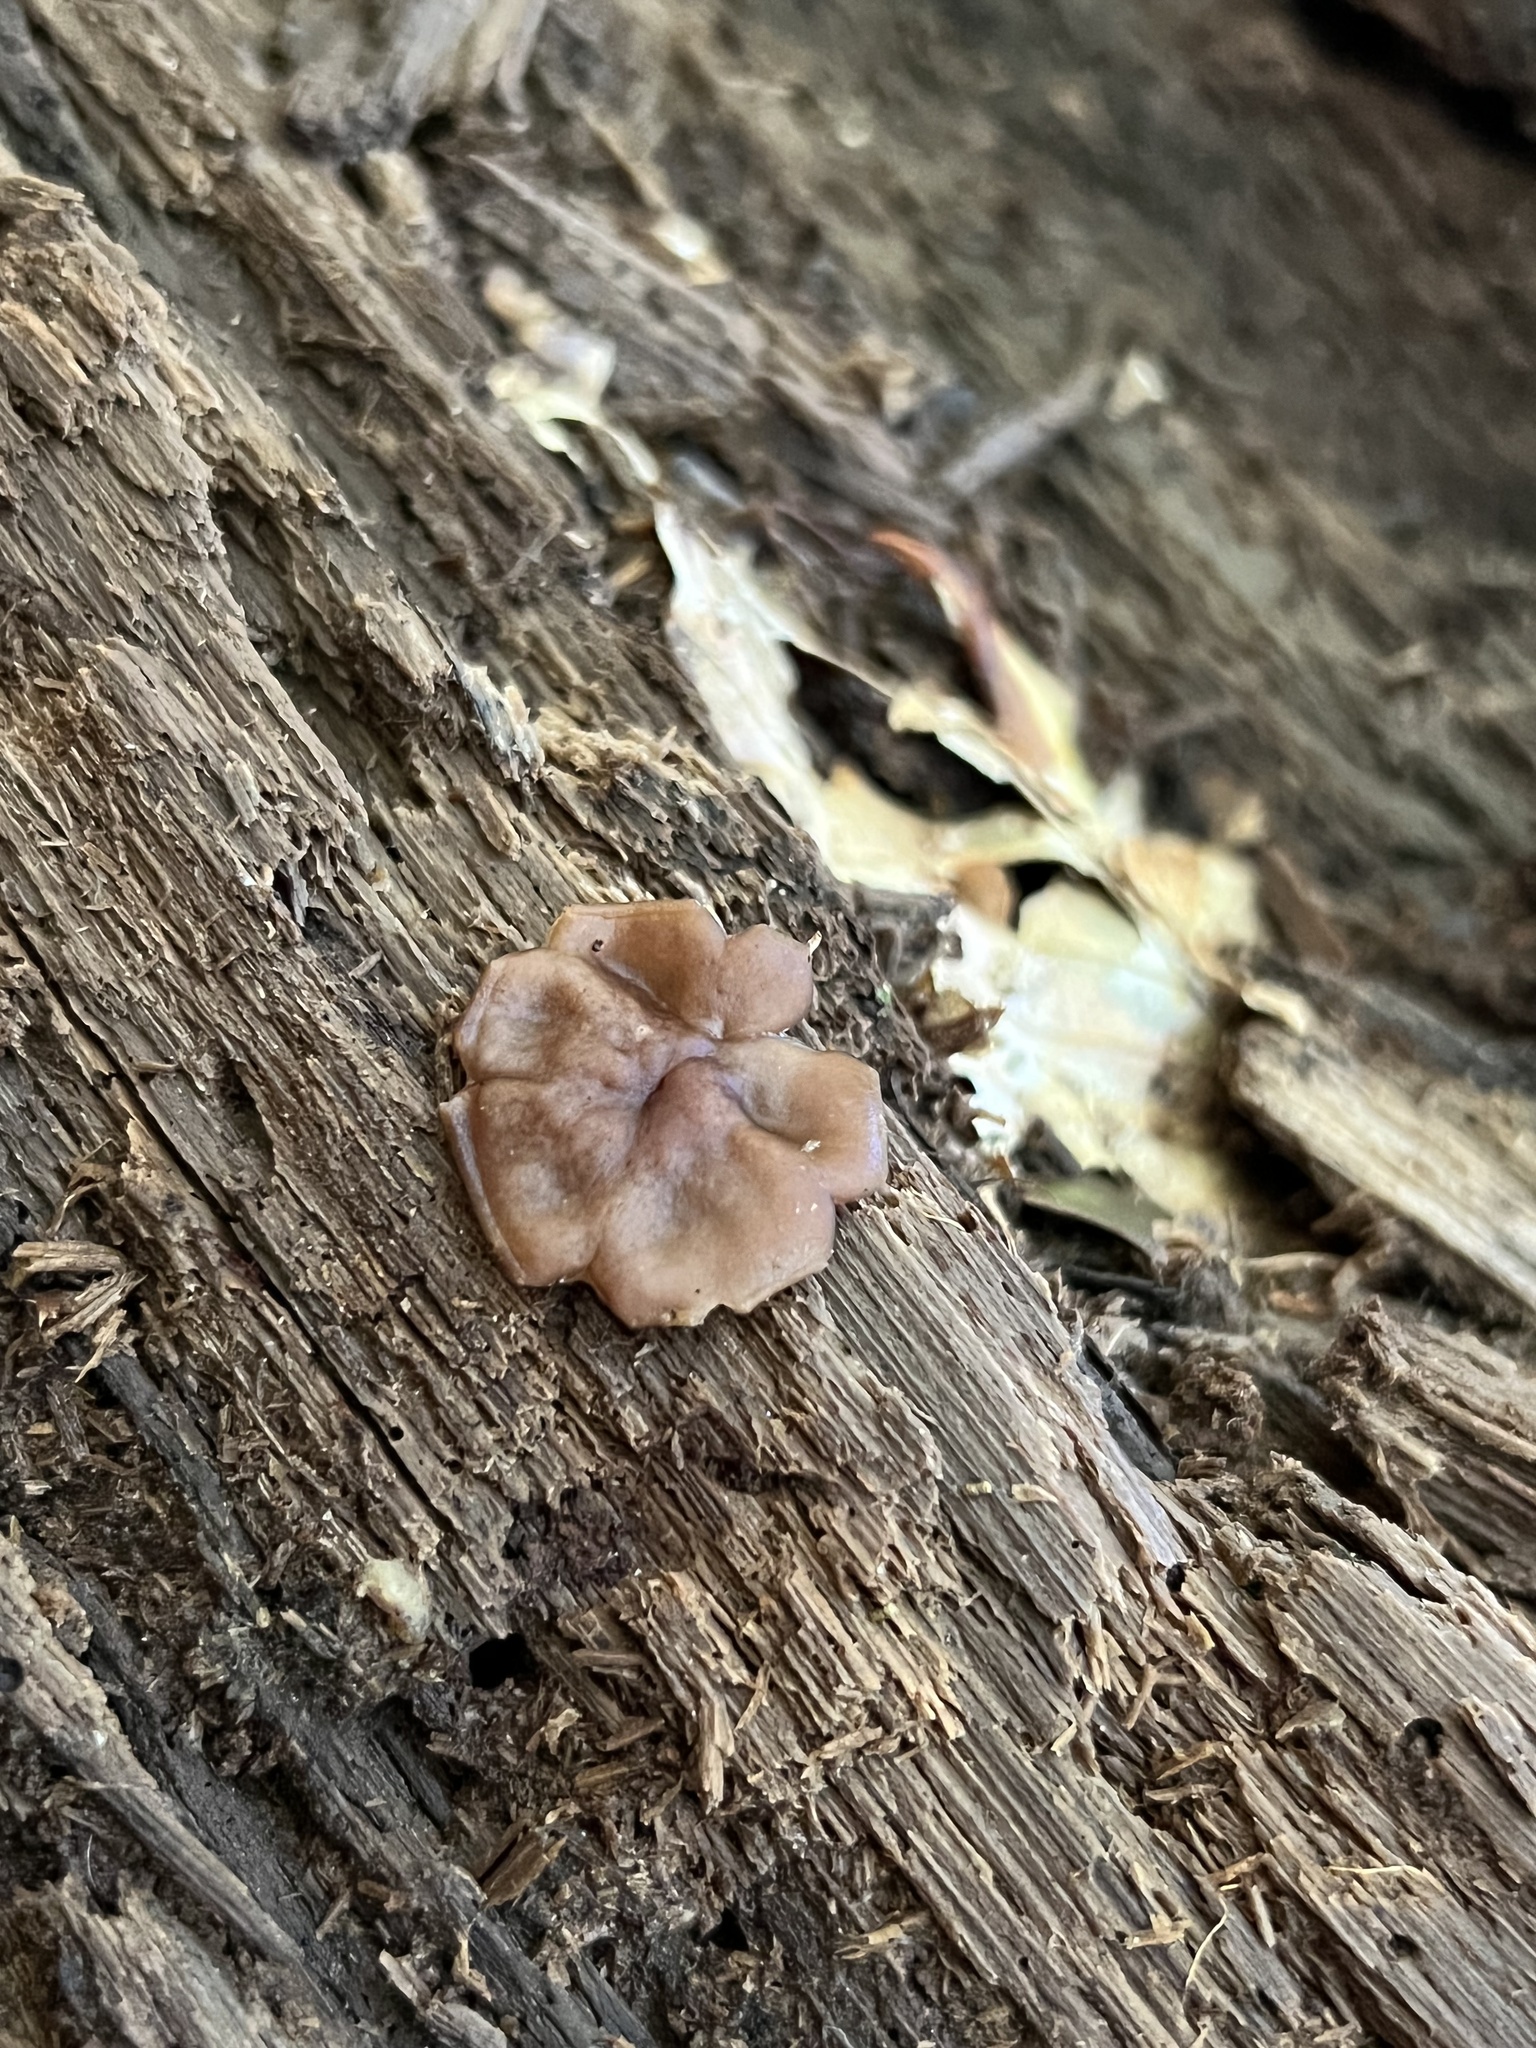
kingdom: Fungi
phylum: Ascomycota
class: Pezizomycetes
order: Pezizales
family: Pezizaceae
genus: Pachyella
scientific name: Pachyella clypeata
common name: Copper penny fungus
